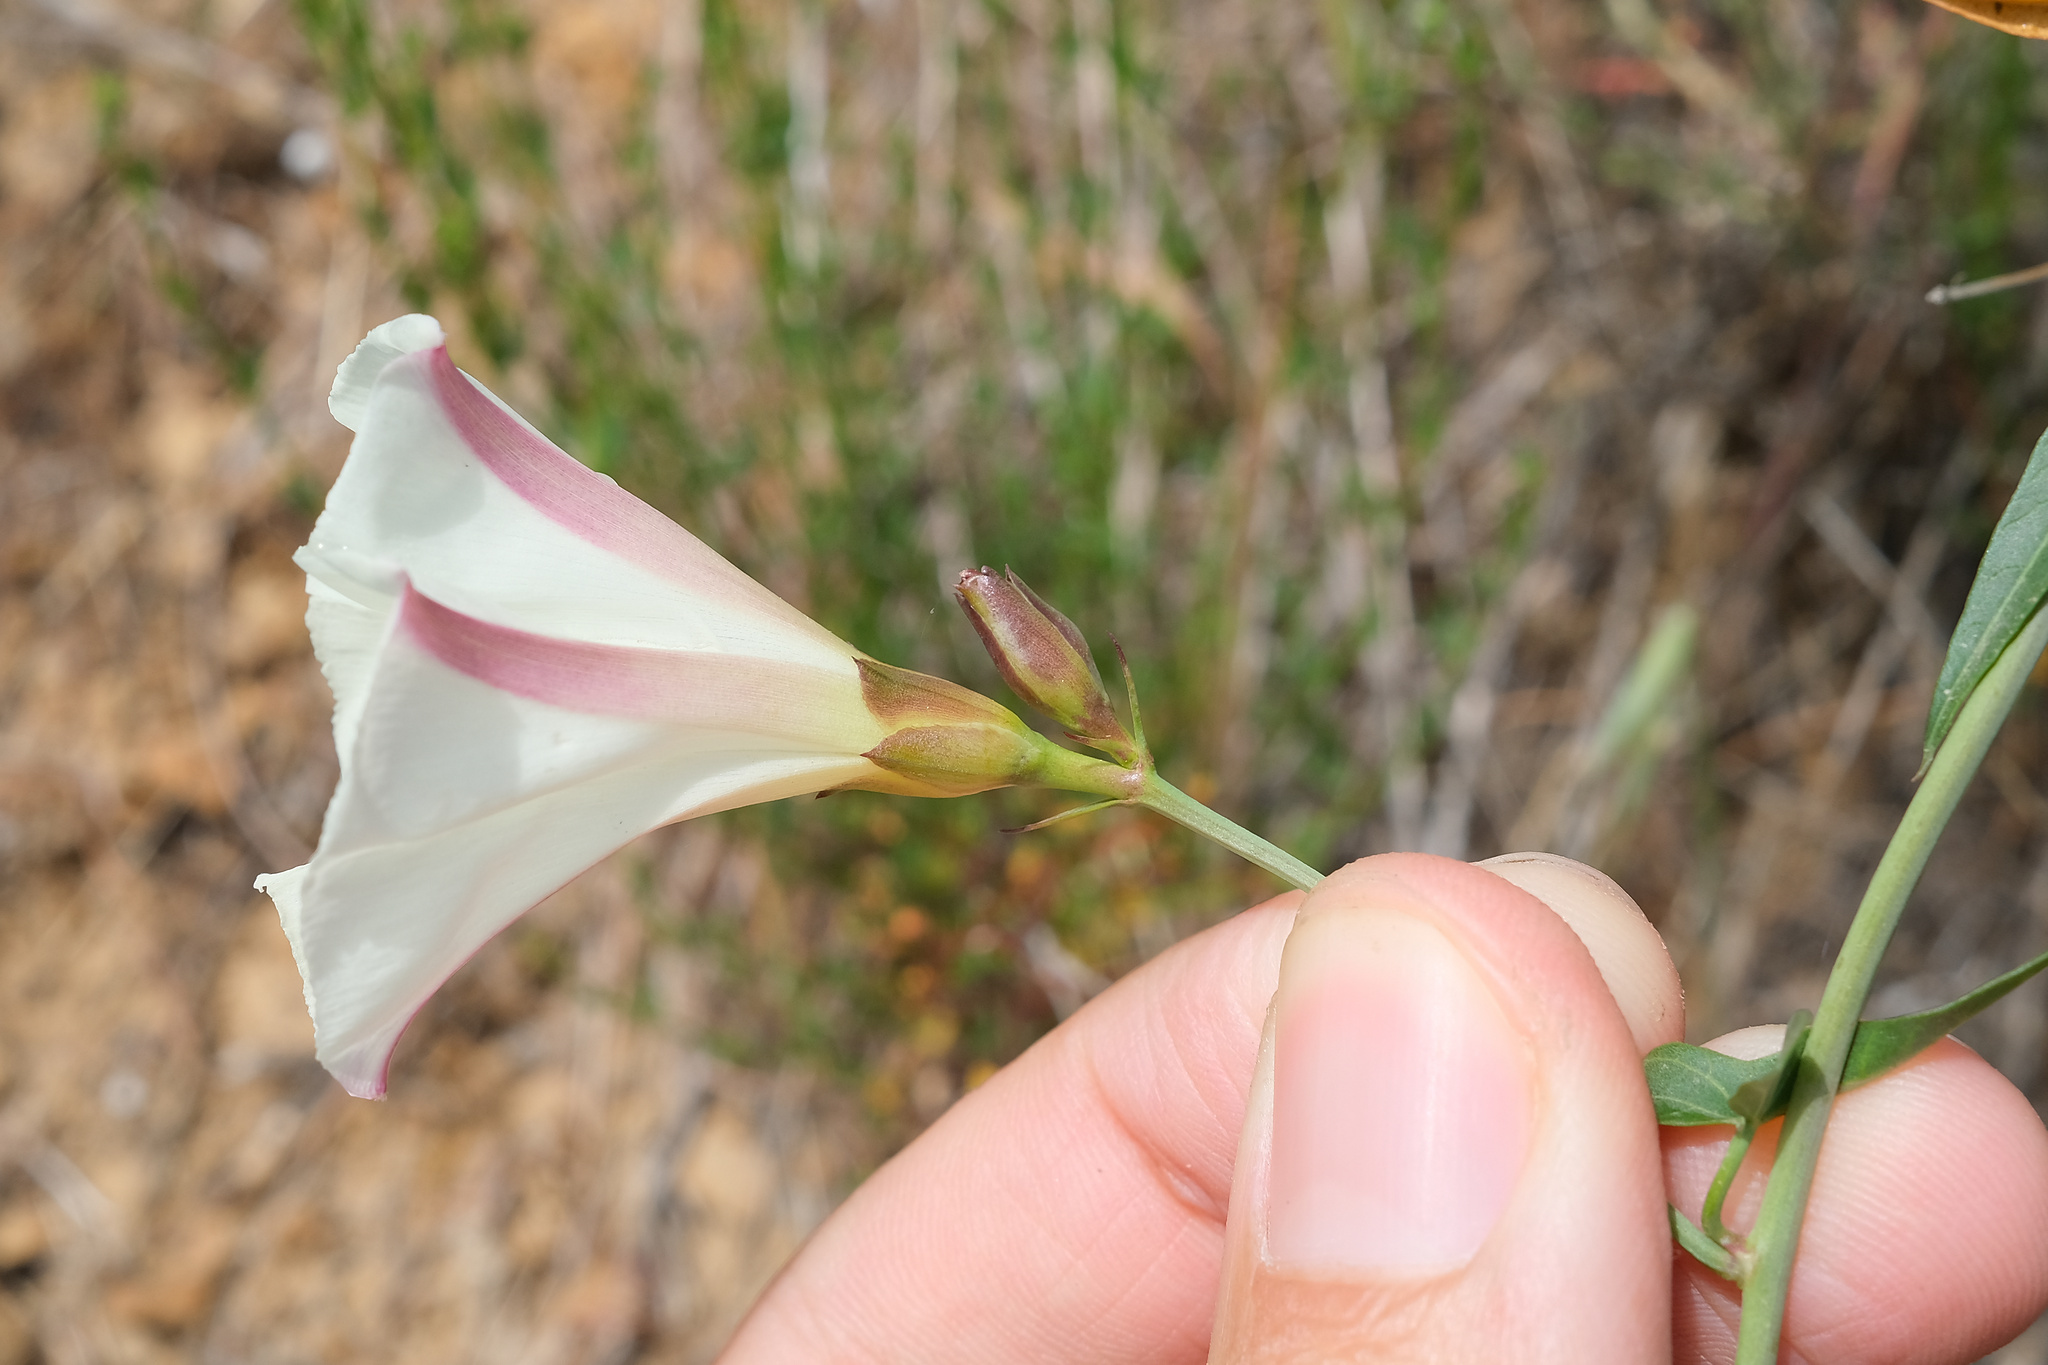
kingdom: Plantae
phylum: Tracheophyta
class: Magnoliopsida
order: Solanales
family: Convolvulaceae
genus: Calystegia
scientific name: Calystegia purpurata
